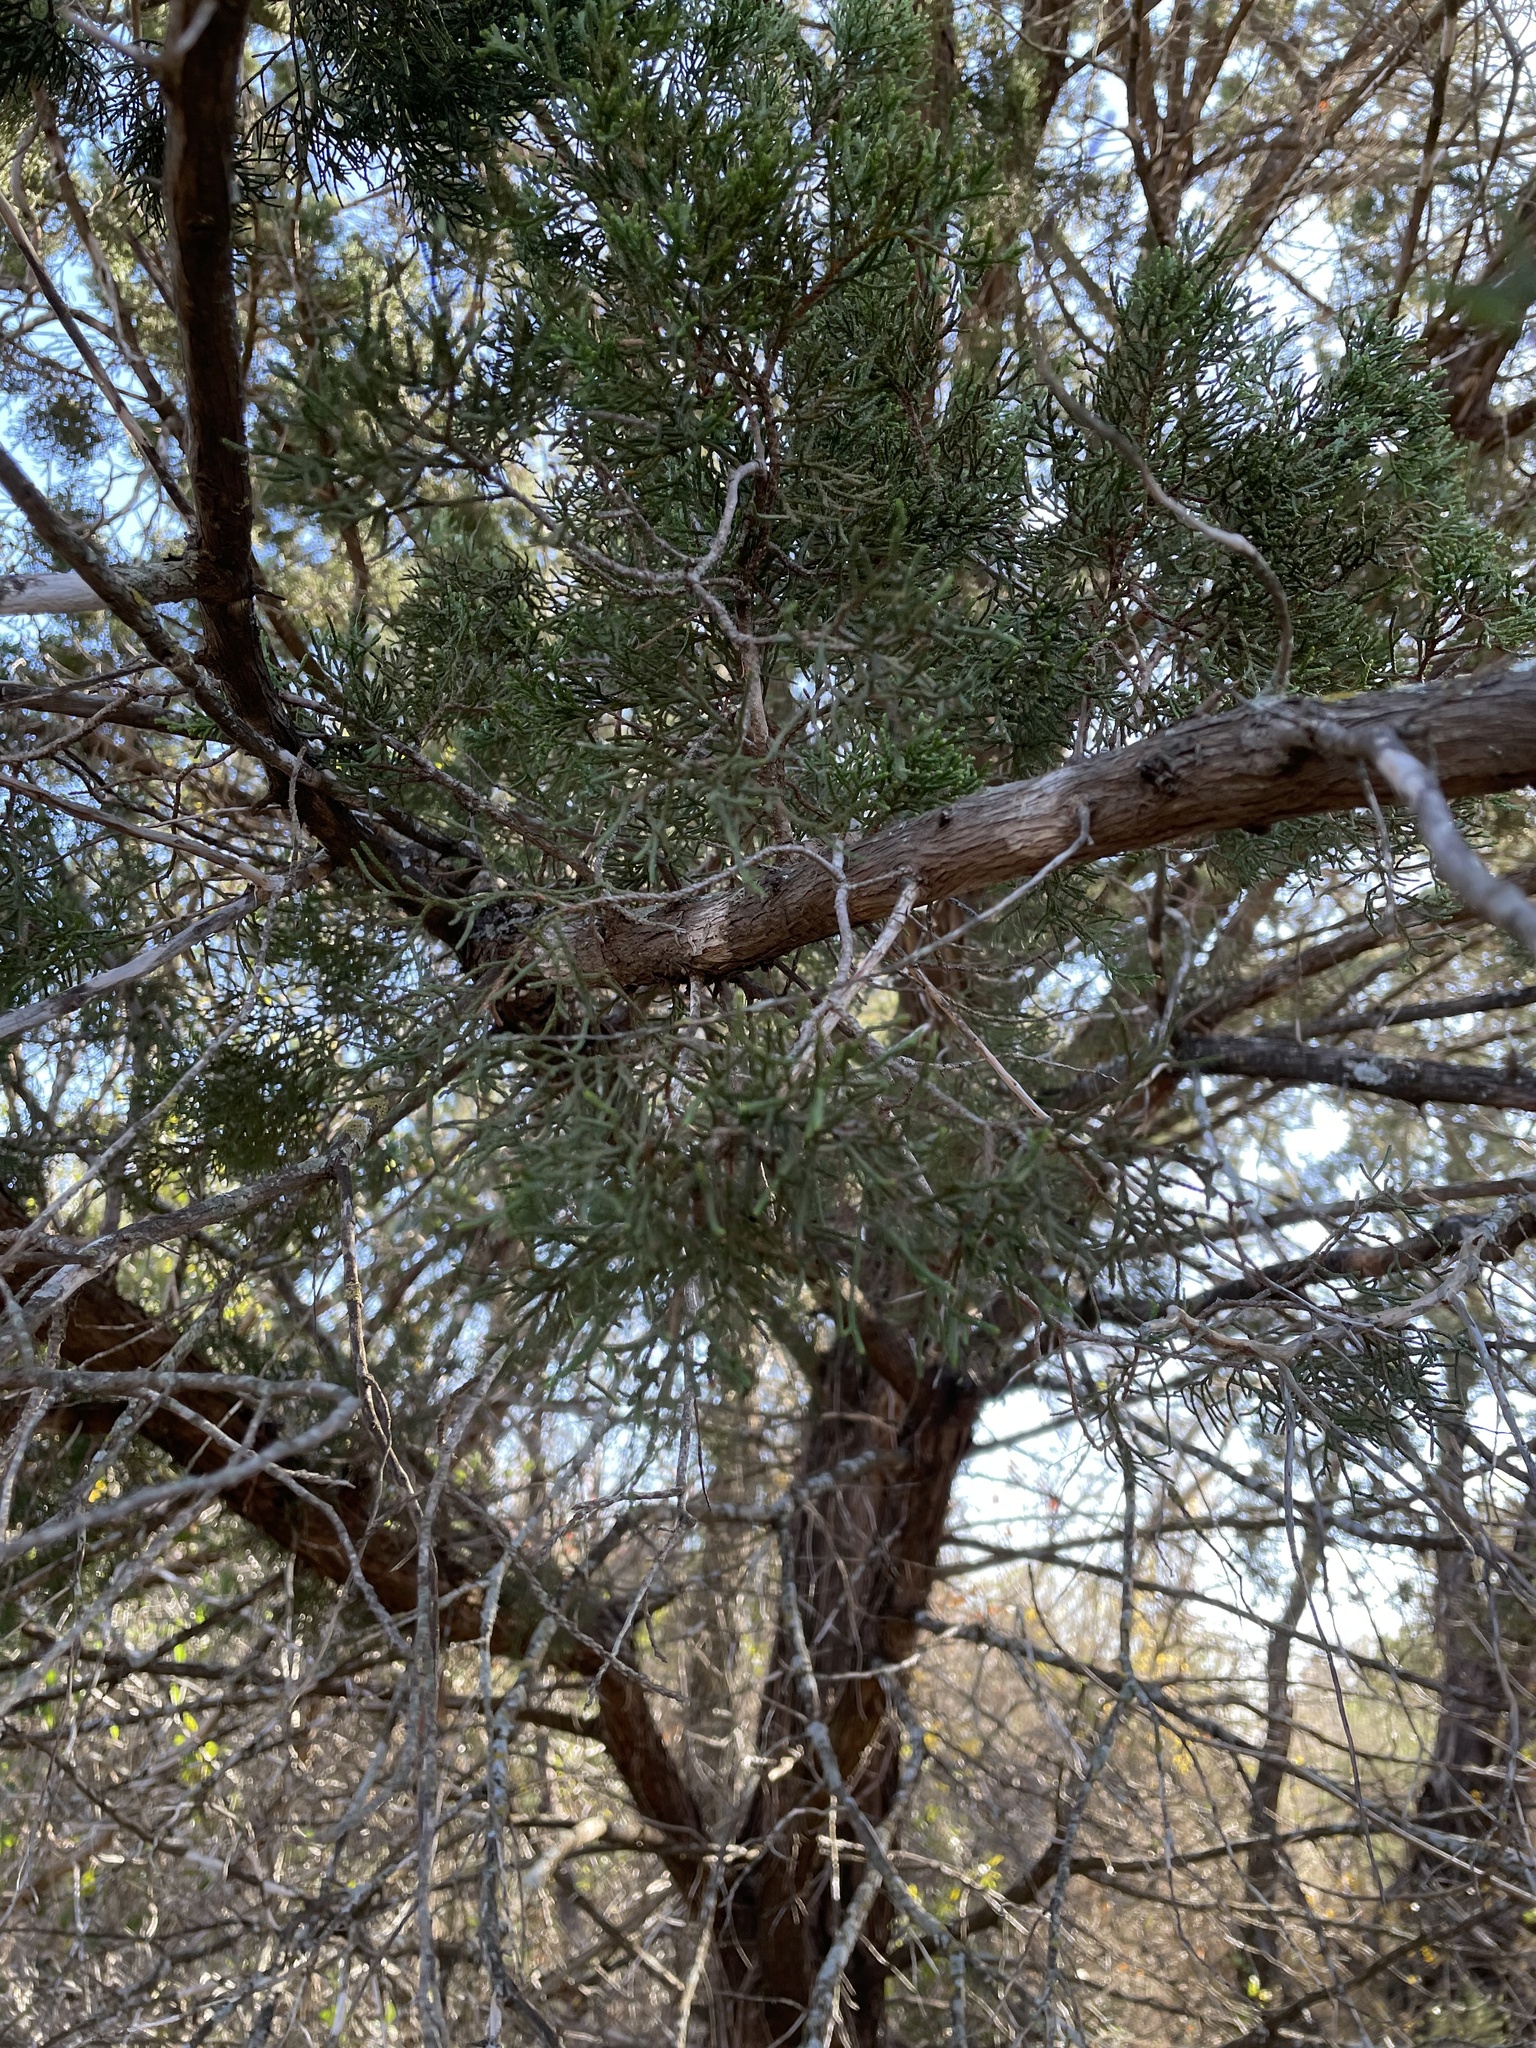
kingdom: Plantae
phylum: Tracheophyta
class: Pinopsida
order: Pinales
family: Cupressaceae
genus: Juniperus
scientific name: Juniperus ashei
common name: Mexican juniper
